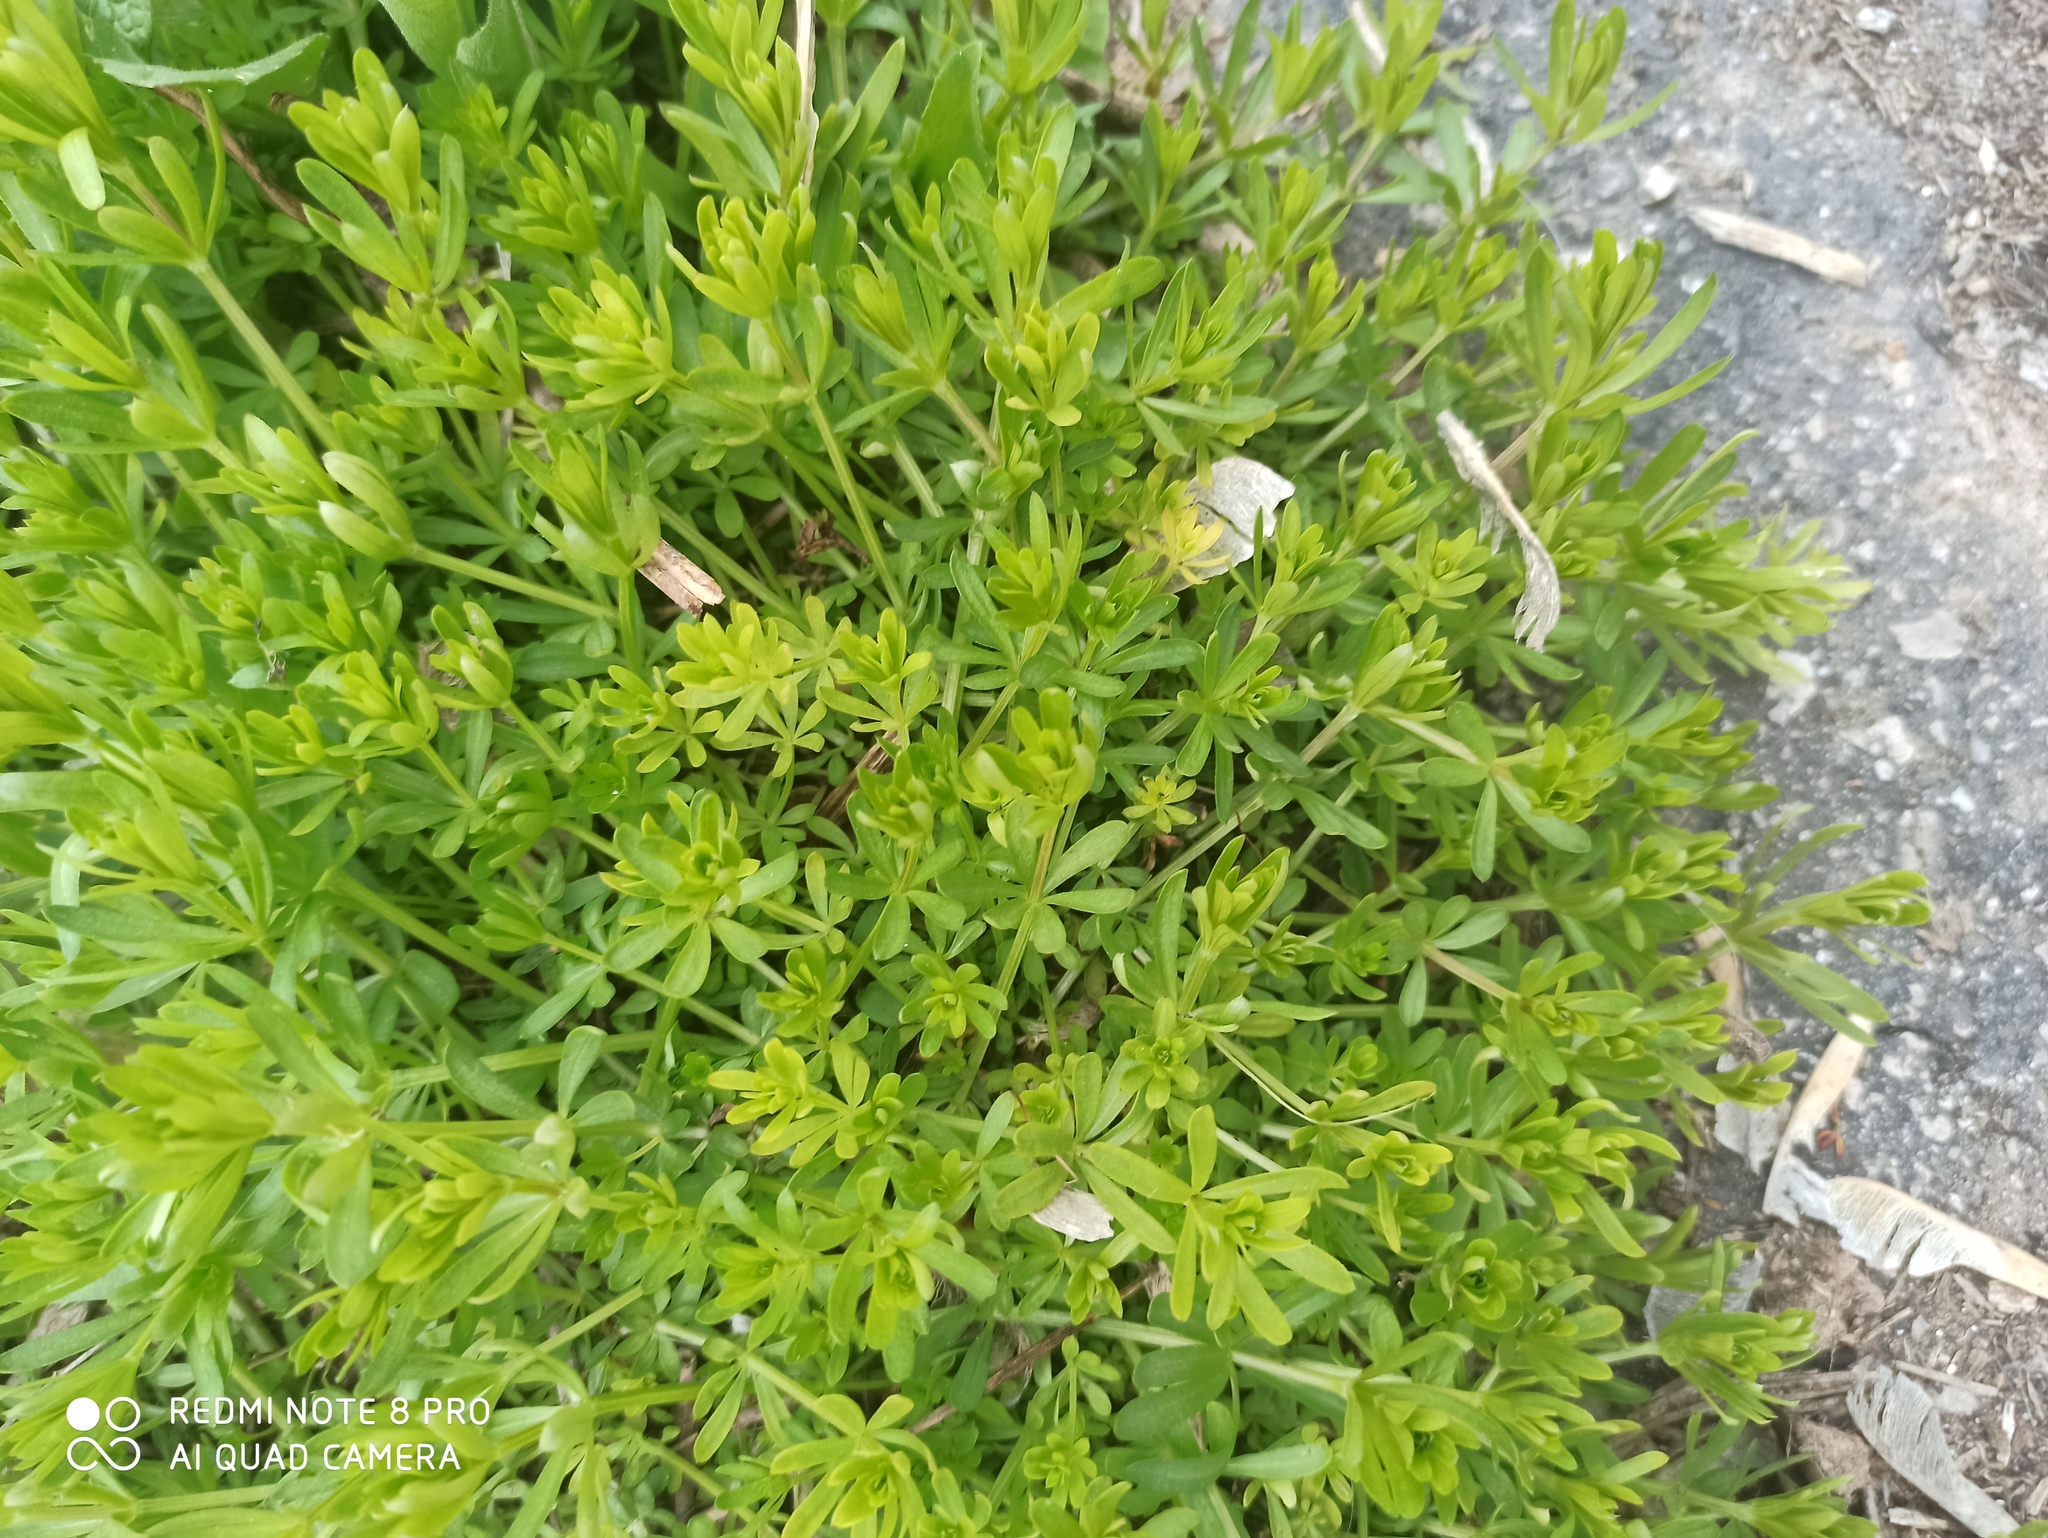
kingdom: Plantae
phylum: Tracheophyta
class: Magnoliopsida
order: Gentianales
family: Rubiaceae
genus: Galium
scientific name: Galium mollugo
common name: Hedge bedstraw
